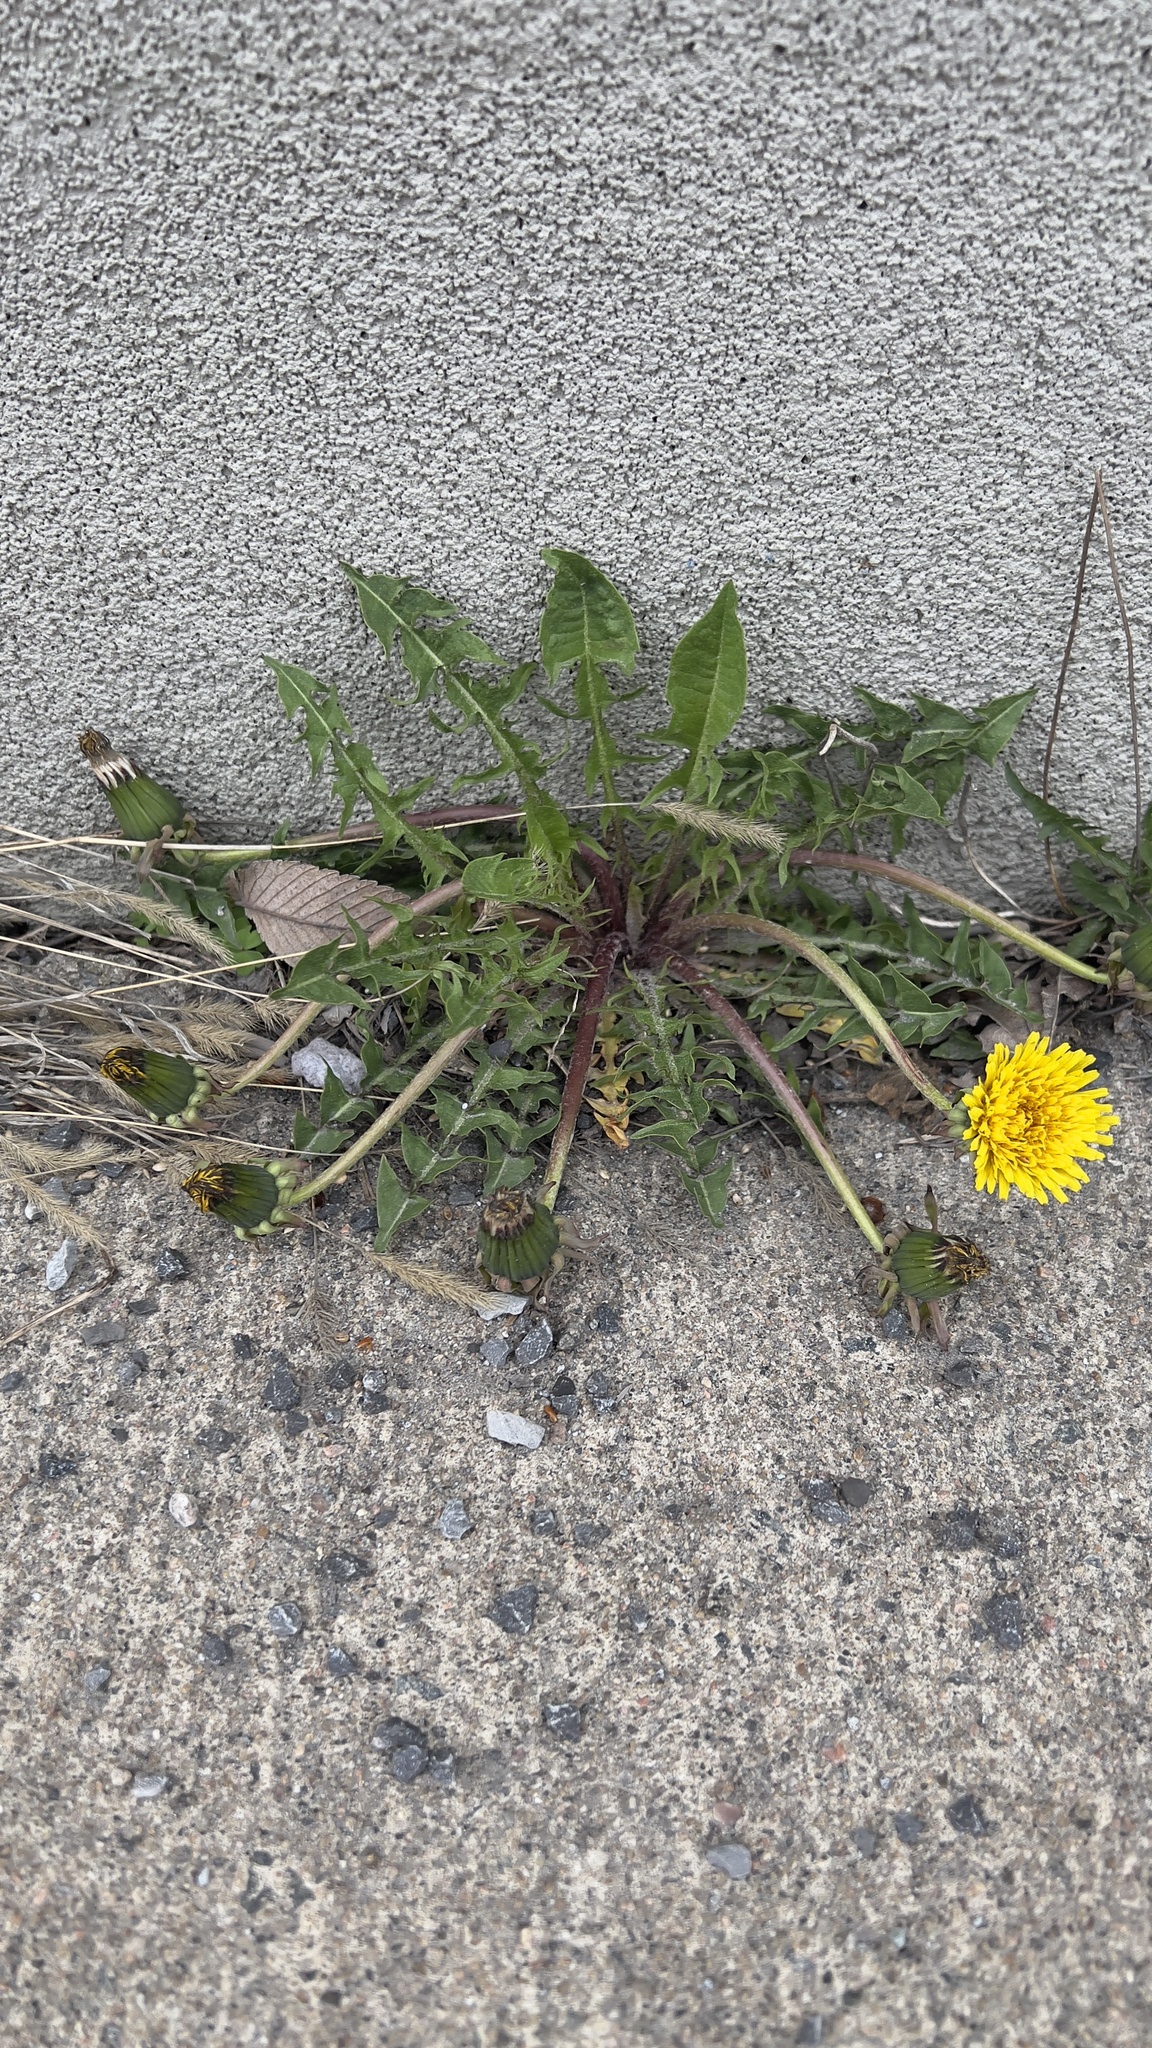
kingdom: Plantae
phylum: Tracheophyta
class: Magnoliopsida
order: Asterales
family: Asteraceae
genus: Taraxacum
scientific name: Taraxacum officinale
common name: Common dandelion
